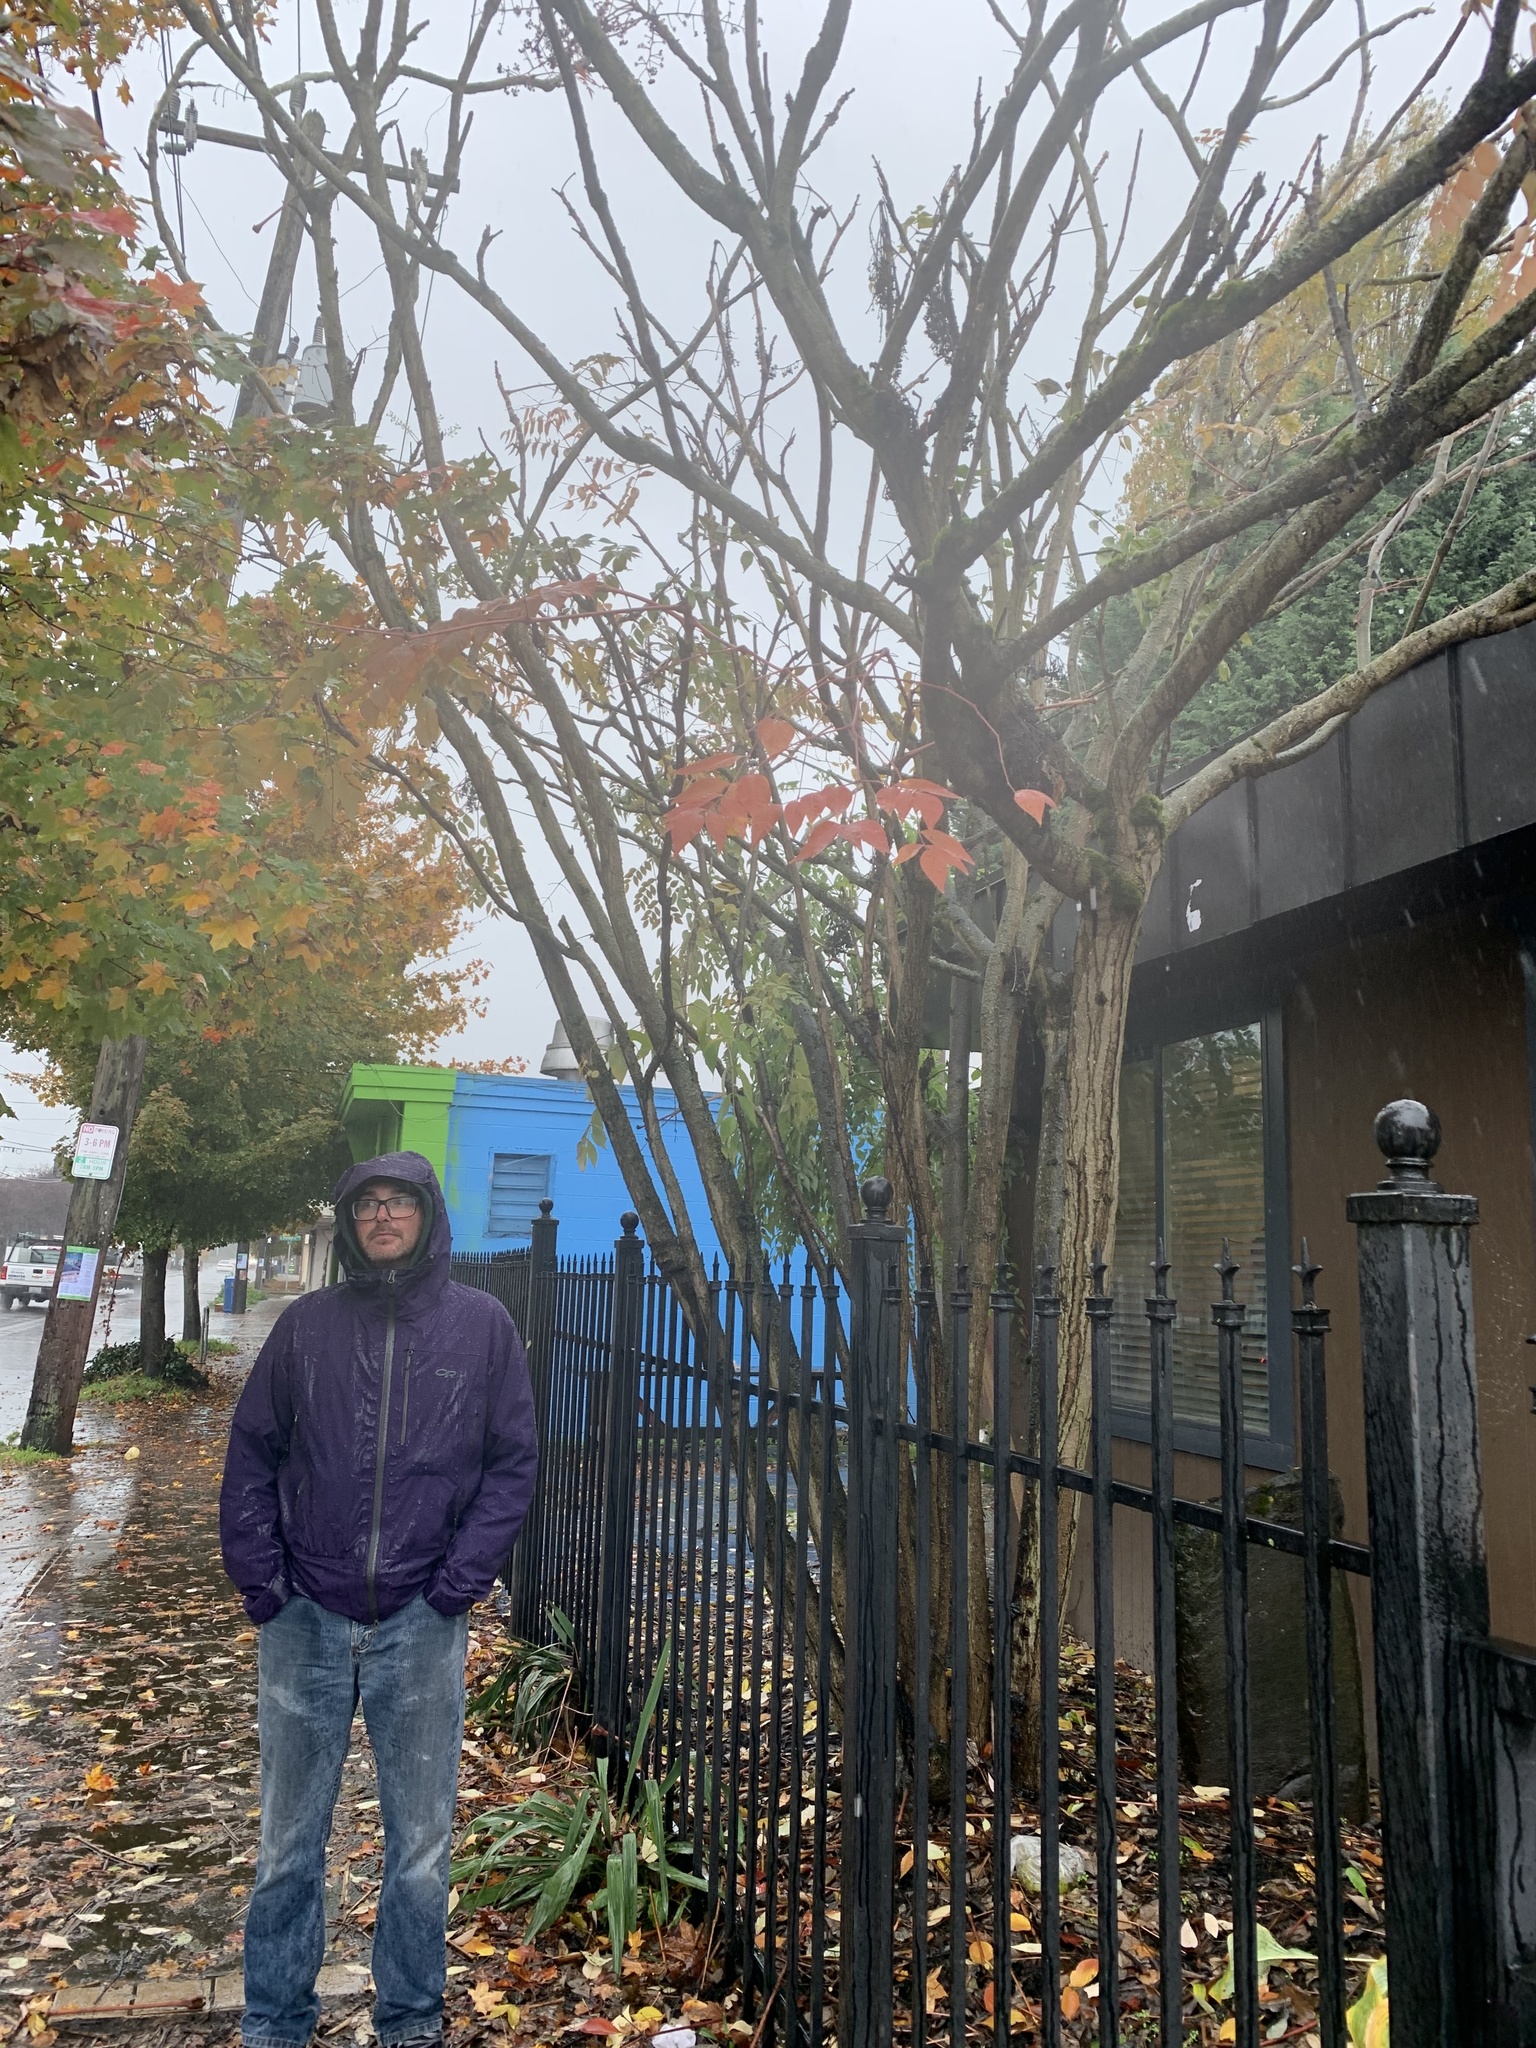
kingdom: Plantae
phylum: Tracheophyta
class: Magnoliopsida
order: Apiales
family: Araliaceae
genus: Aralia
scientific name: Aralia elata
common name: Japanese angelica-tree
